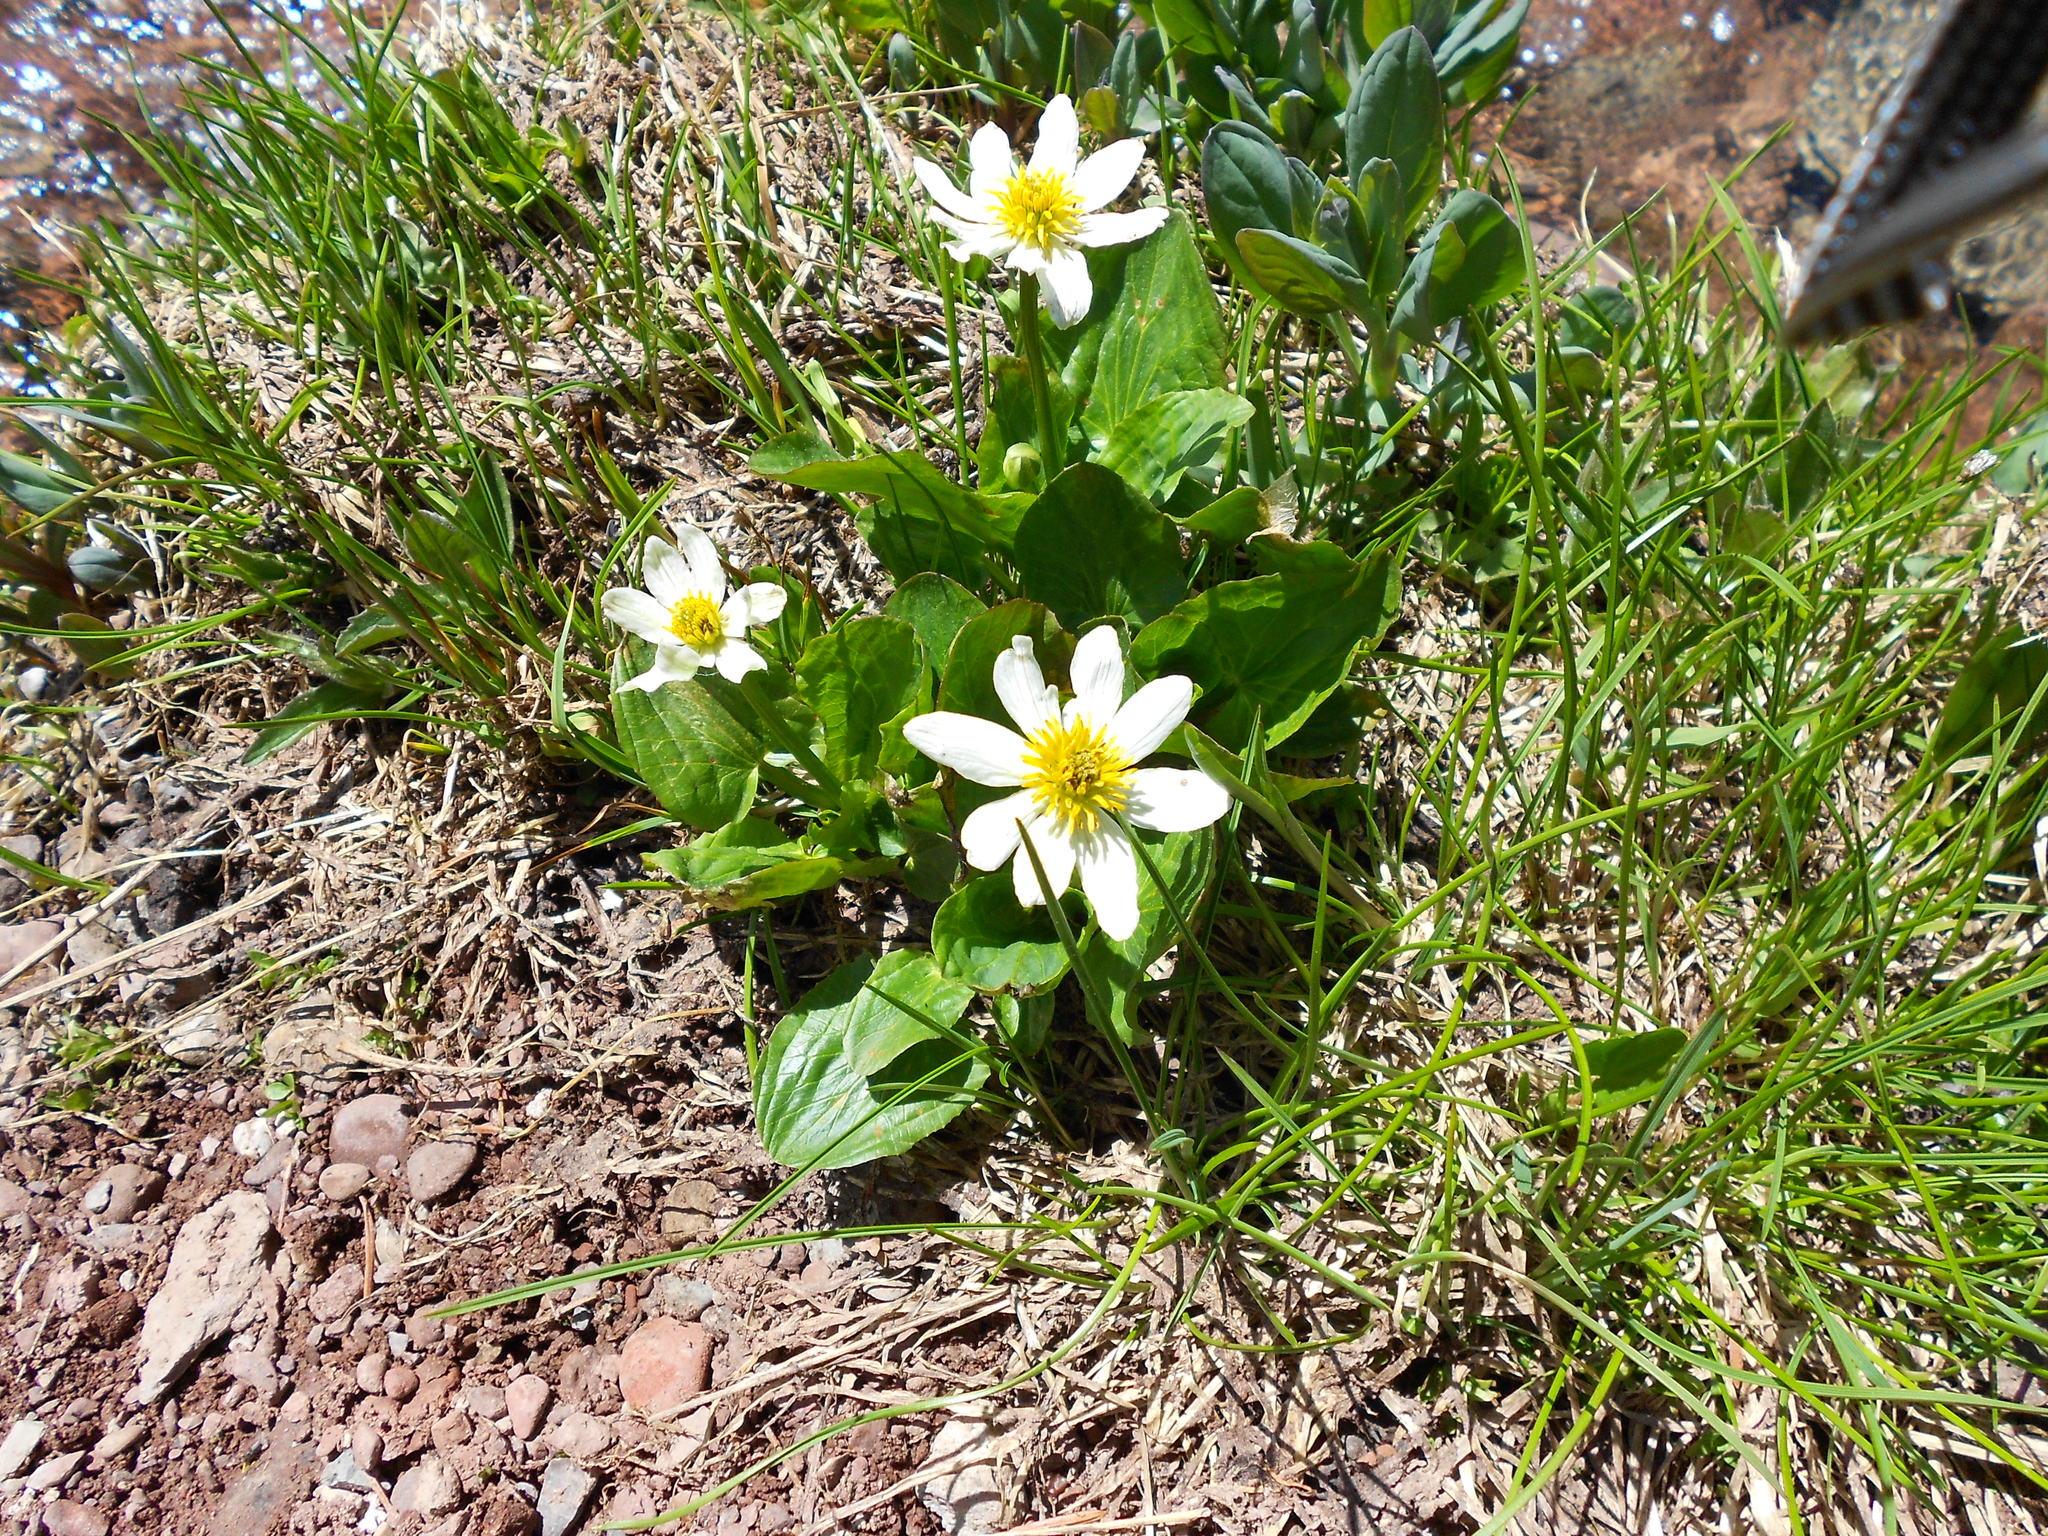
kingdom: Plantae
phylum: Tracheophyta
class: Magnoliopsida
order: Ranunculales
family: Ranunculaceae
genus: Caltha
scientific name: Caltha leptosepala
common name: Elkslip
